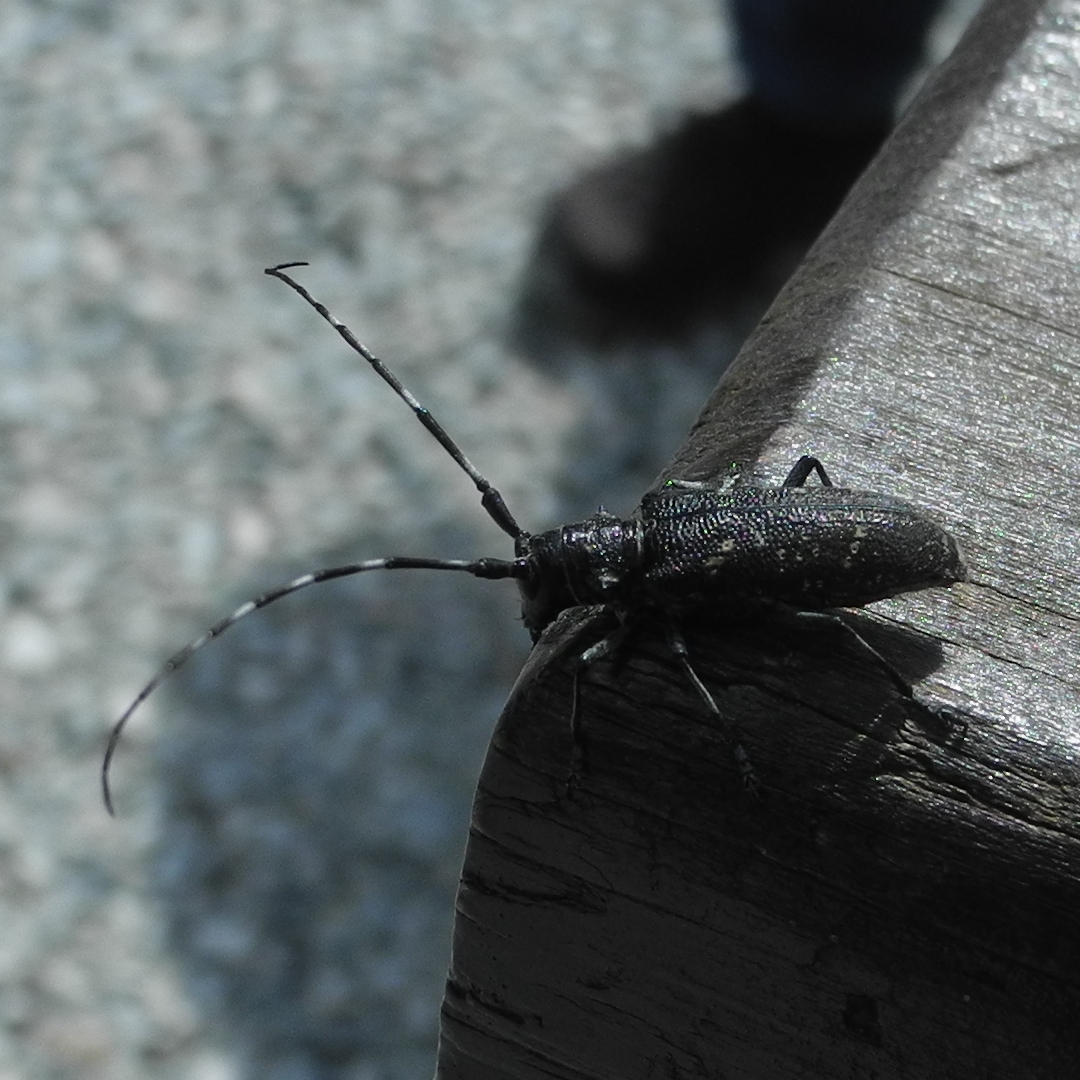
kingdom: Animalia
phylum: Arthropoda
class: Insecta
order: Coleoptera
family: Cerambycidae
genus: Monochamus
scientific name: Monochamus sutor
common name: Pine sawyer
